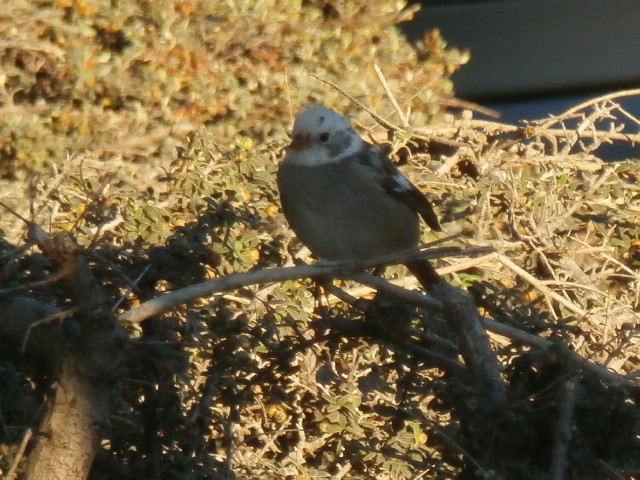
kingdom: Animalia
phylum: Chordata
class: Aves
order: Passeriformes
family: Passerellidae
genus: Zonotrichia
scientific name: Zonotrichia leucophrys
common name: White-crowned sparrow
